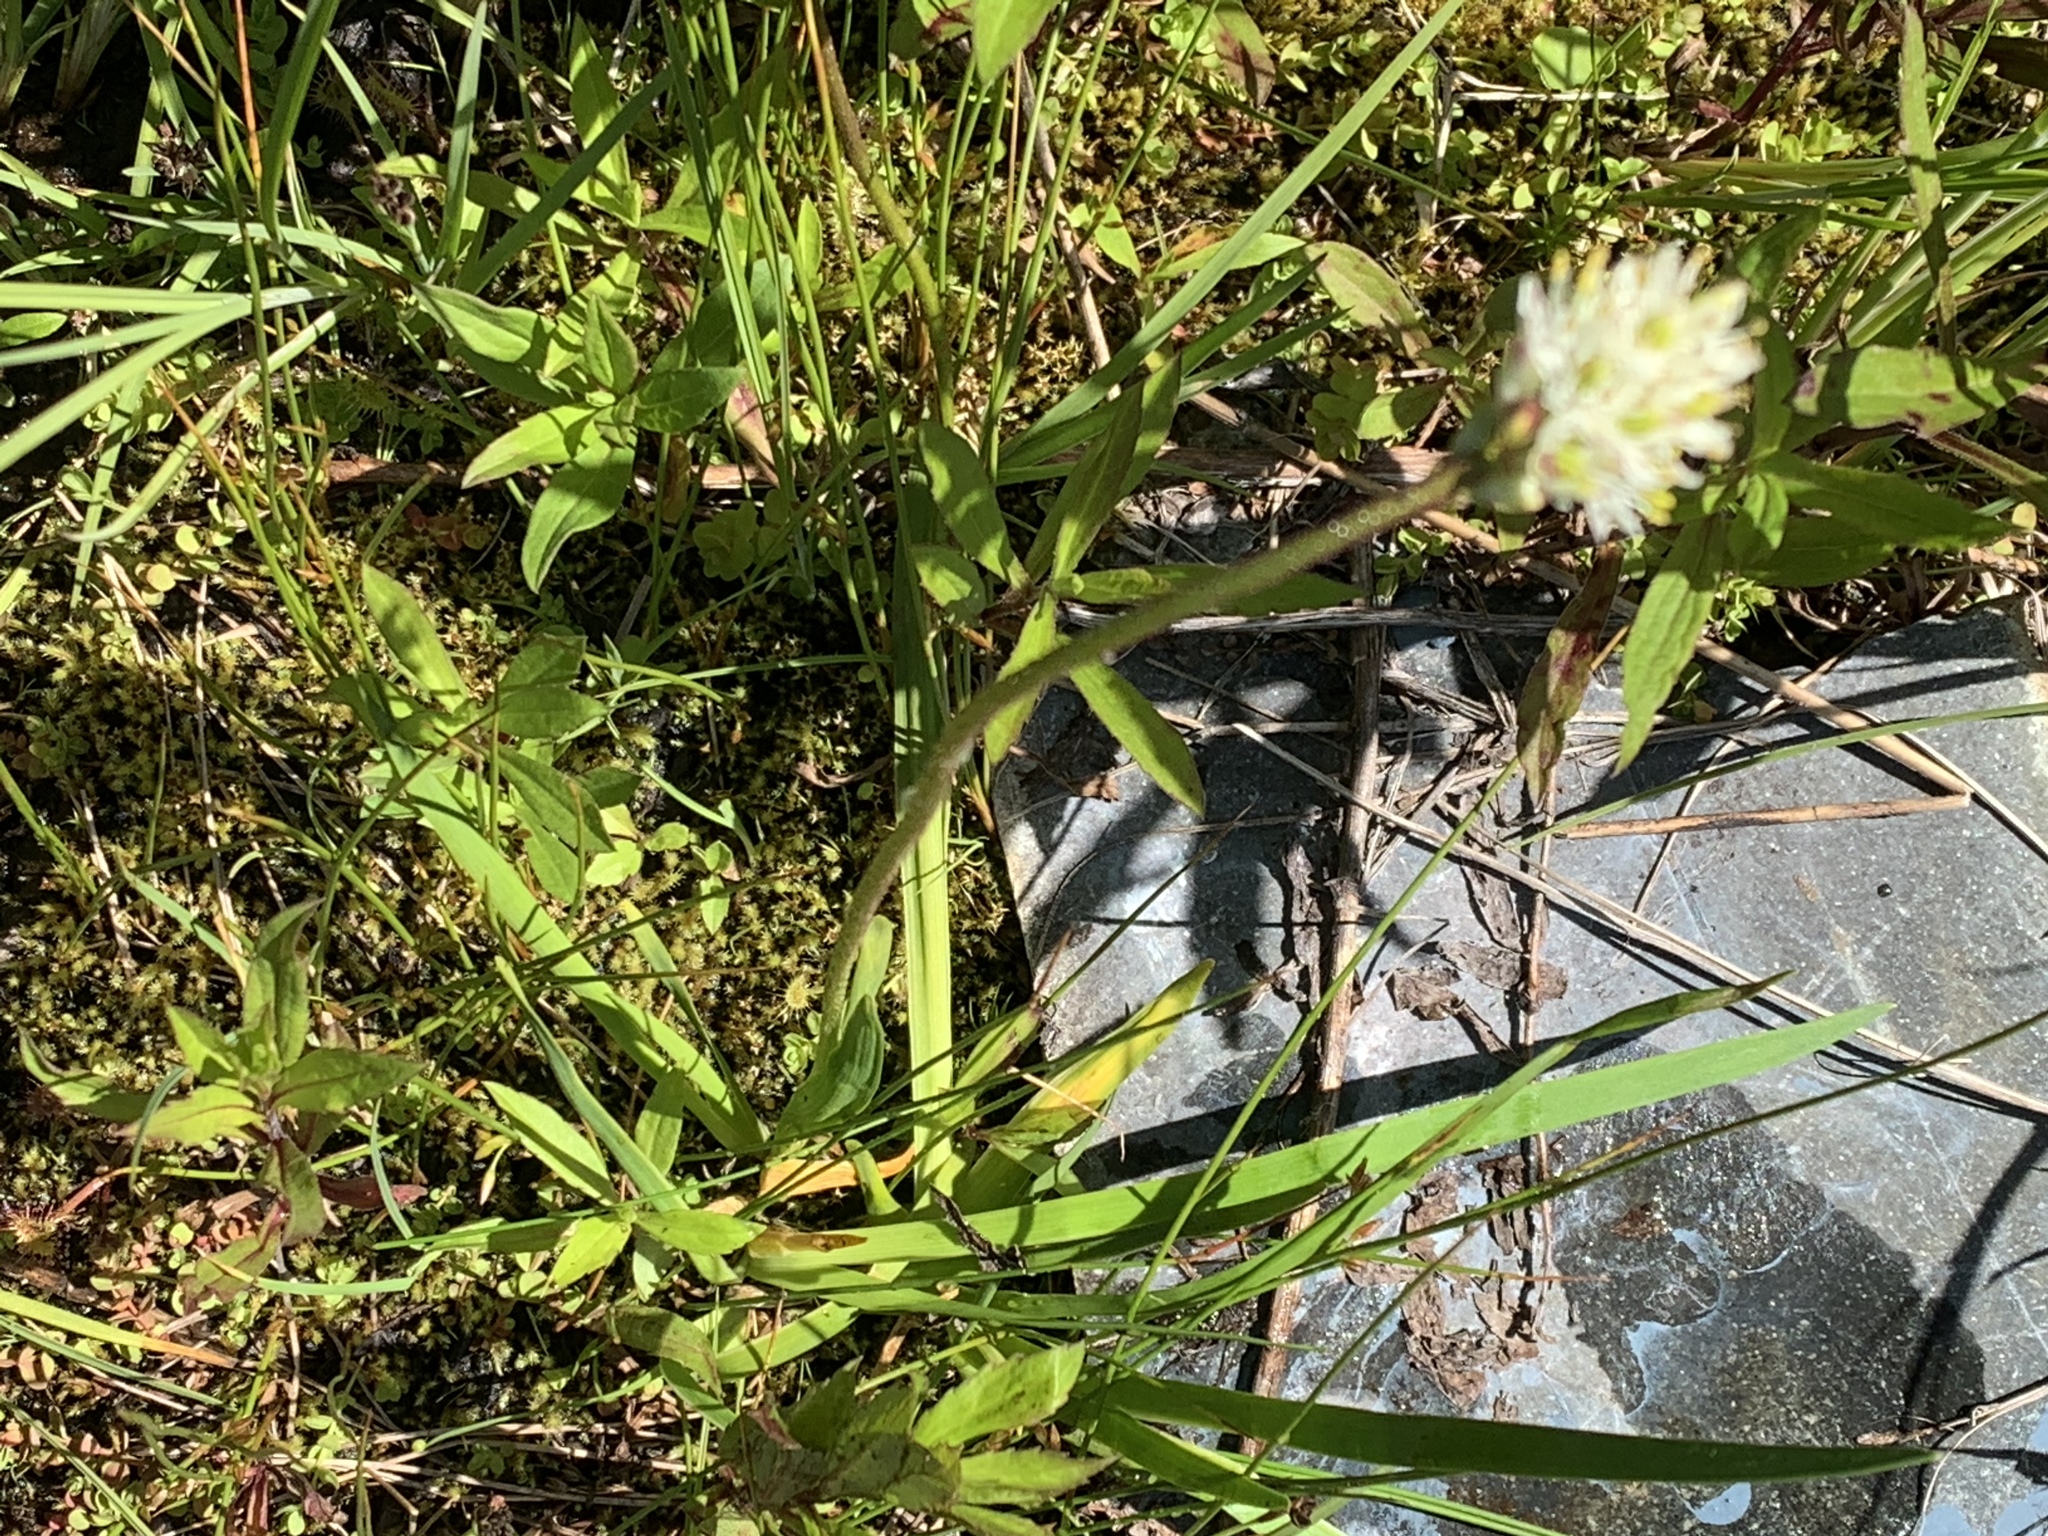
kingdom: Plantae
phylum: Tracheophyta
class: Liliopsida
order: Alismatales
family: Tofieldiaceae
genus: Triantha
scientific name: Triantha occidentalis
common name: Western false asphodel
